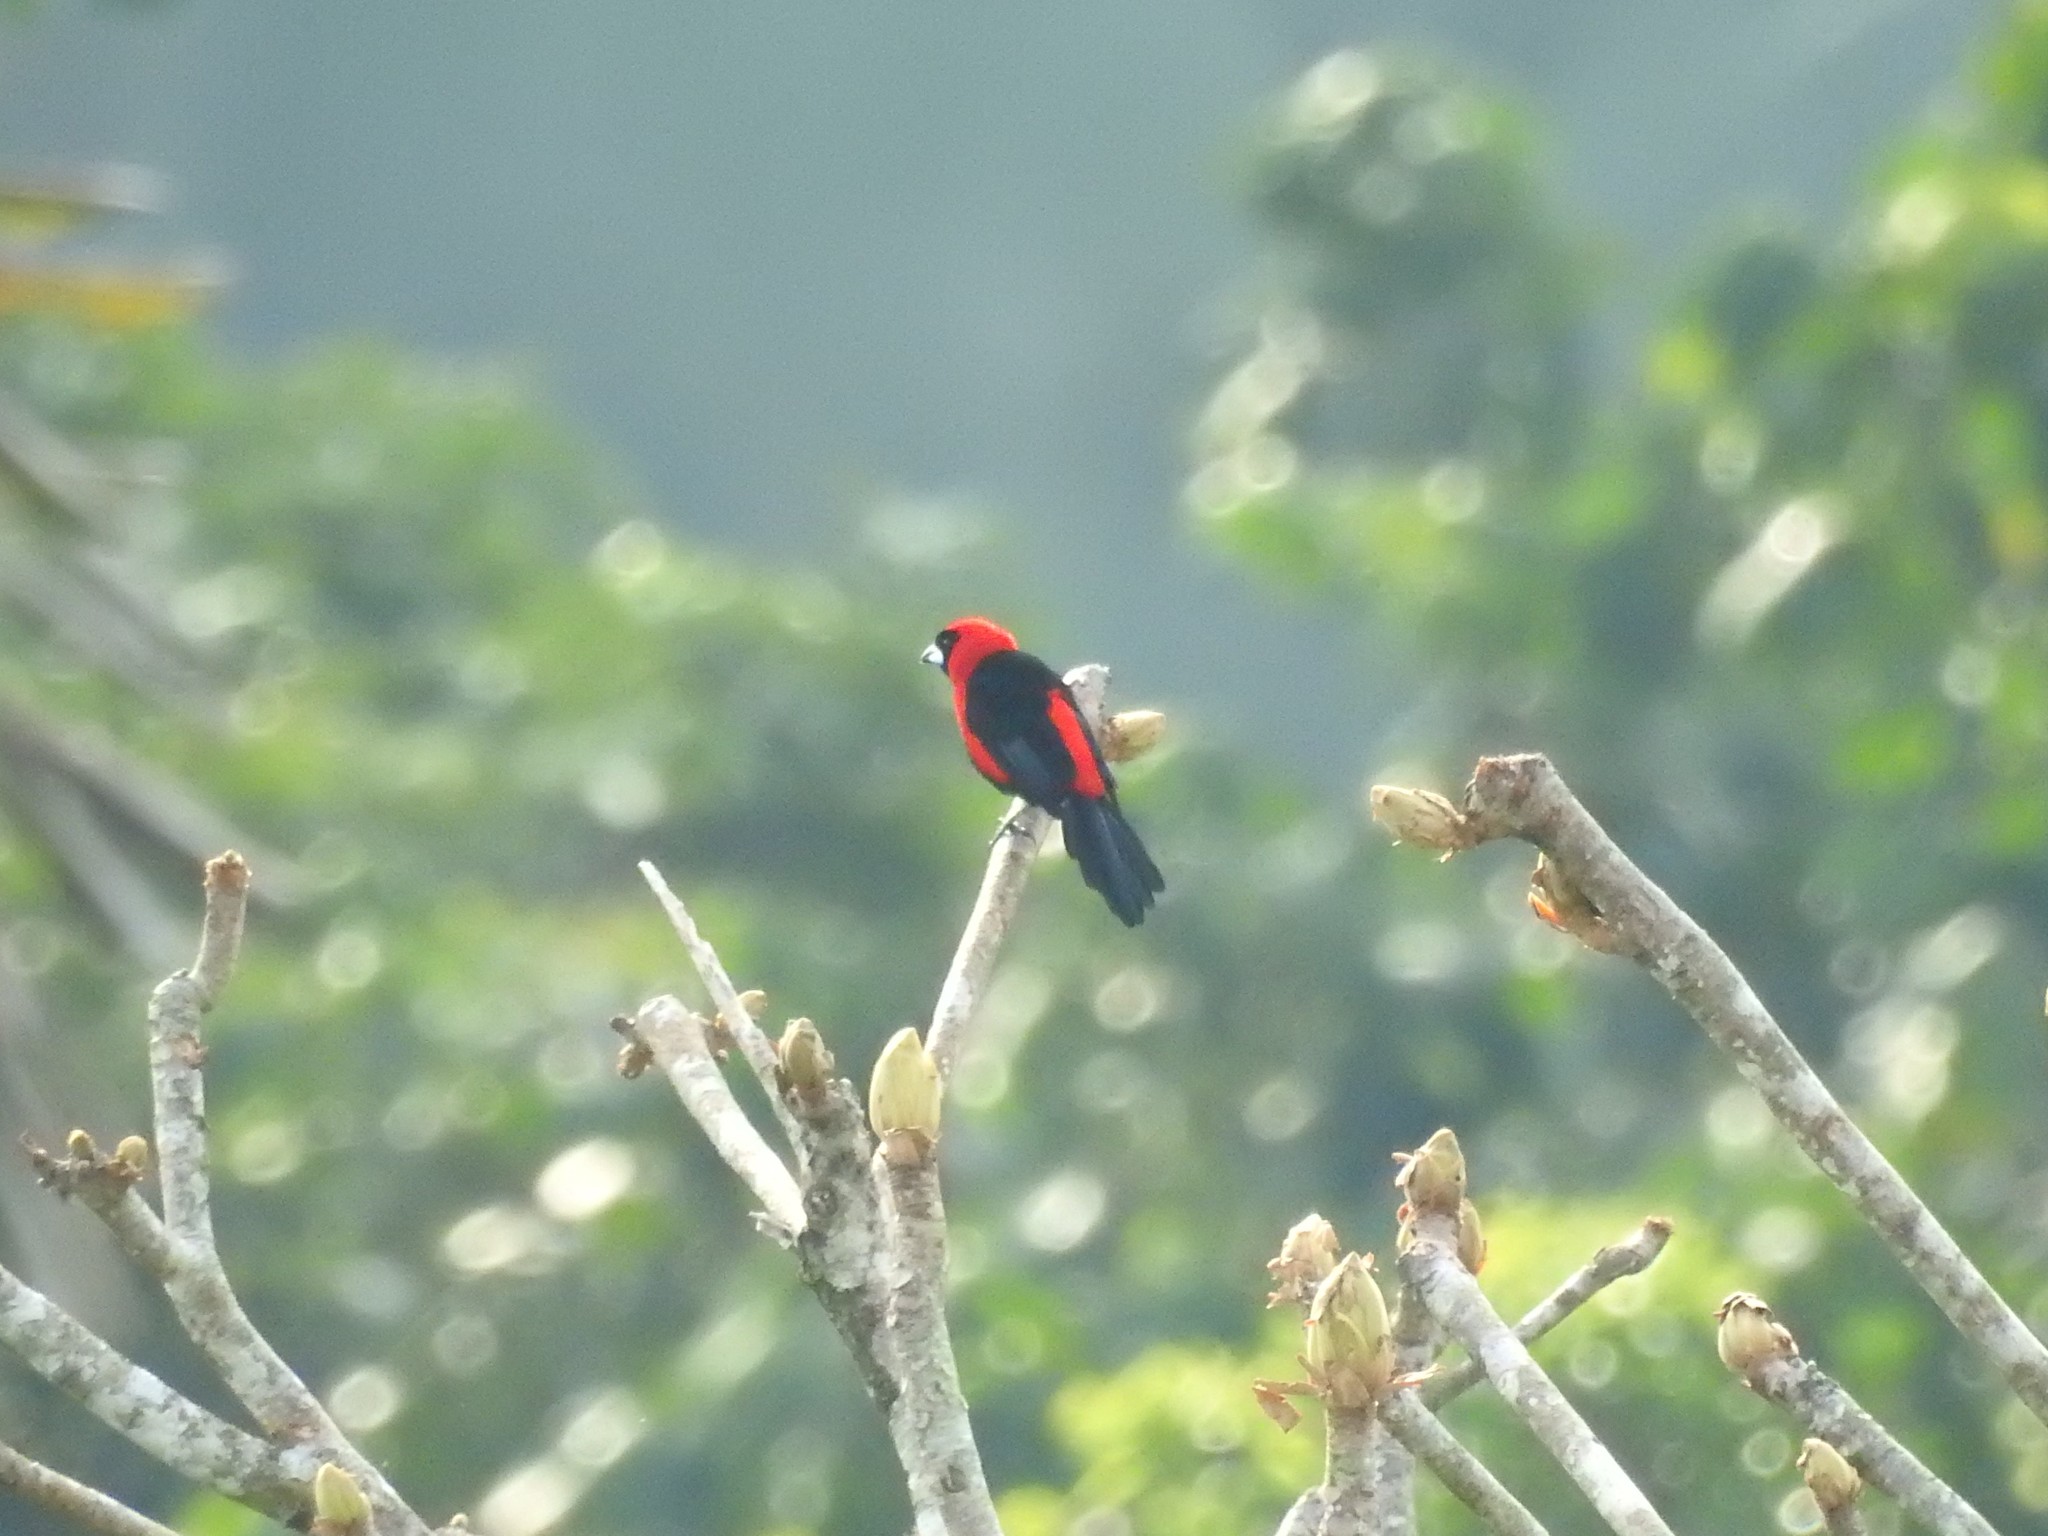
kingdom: Animalia
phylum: Chordata
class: Aves
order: Passeriformes
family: Thraupidae
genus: Ramphocelus
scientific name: Ramphocelus nigrogularis
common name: Masked crimson tanager
